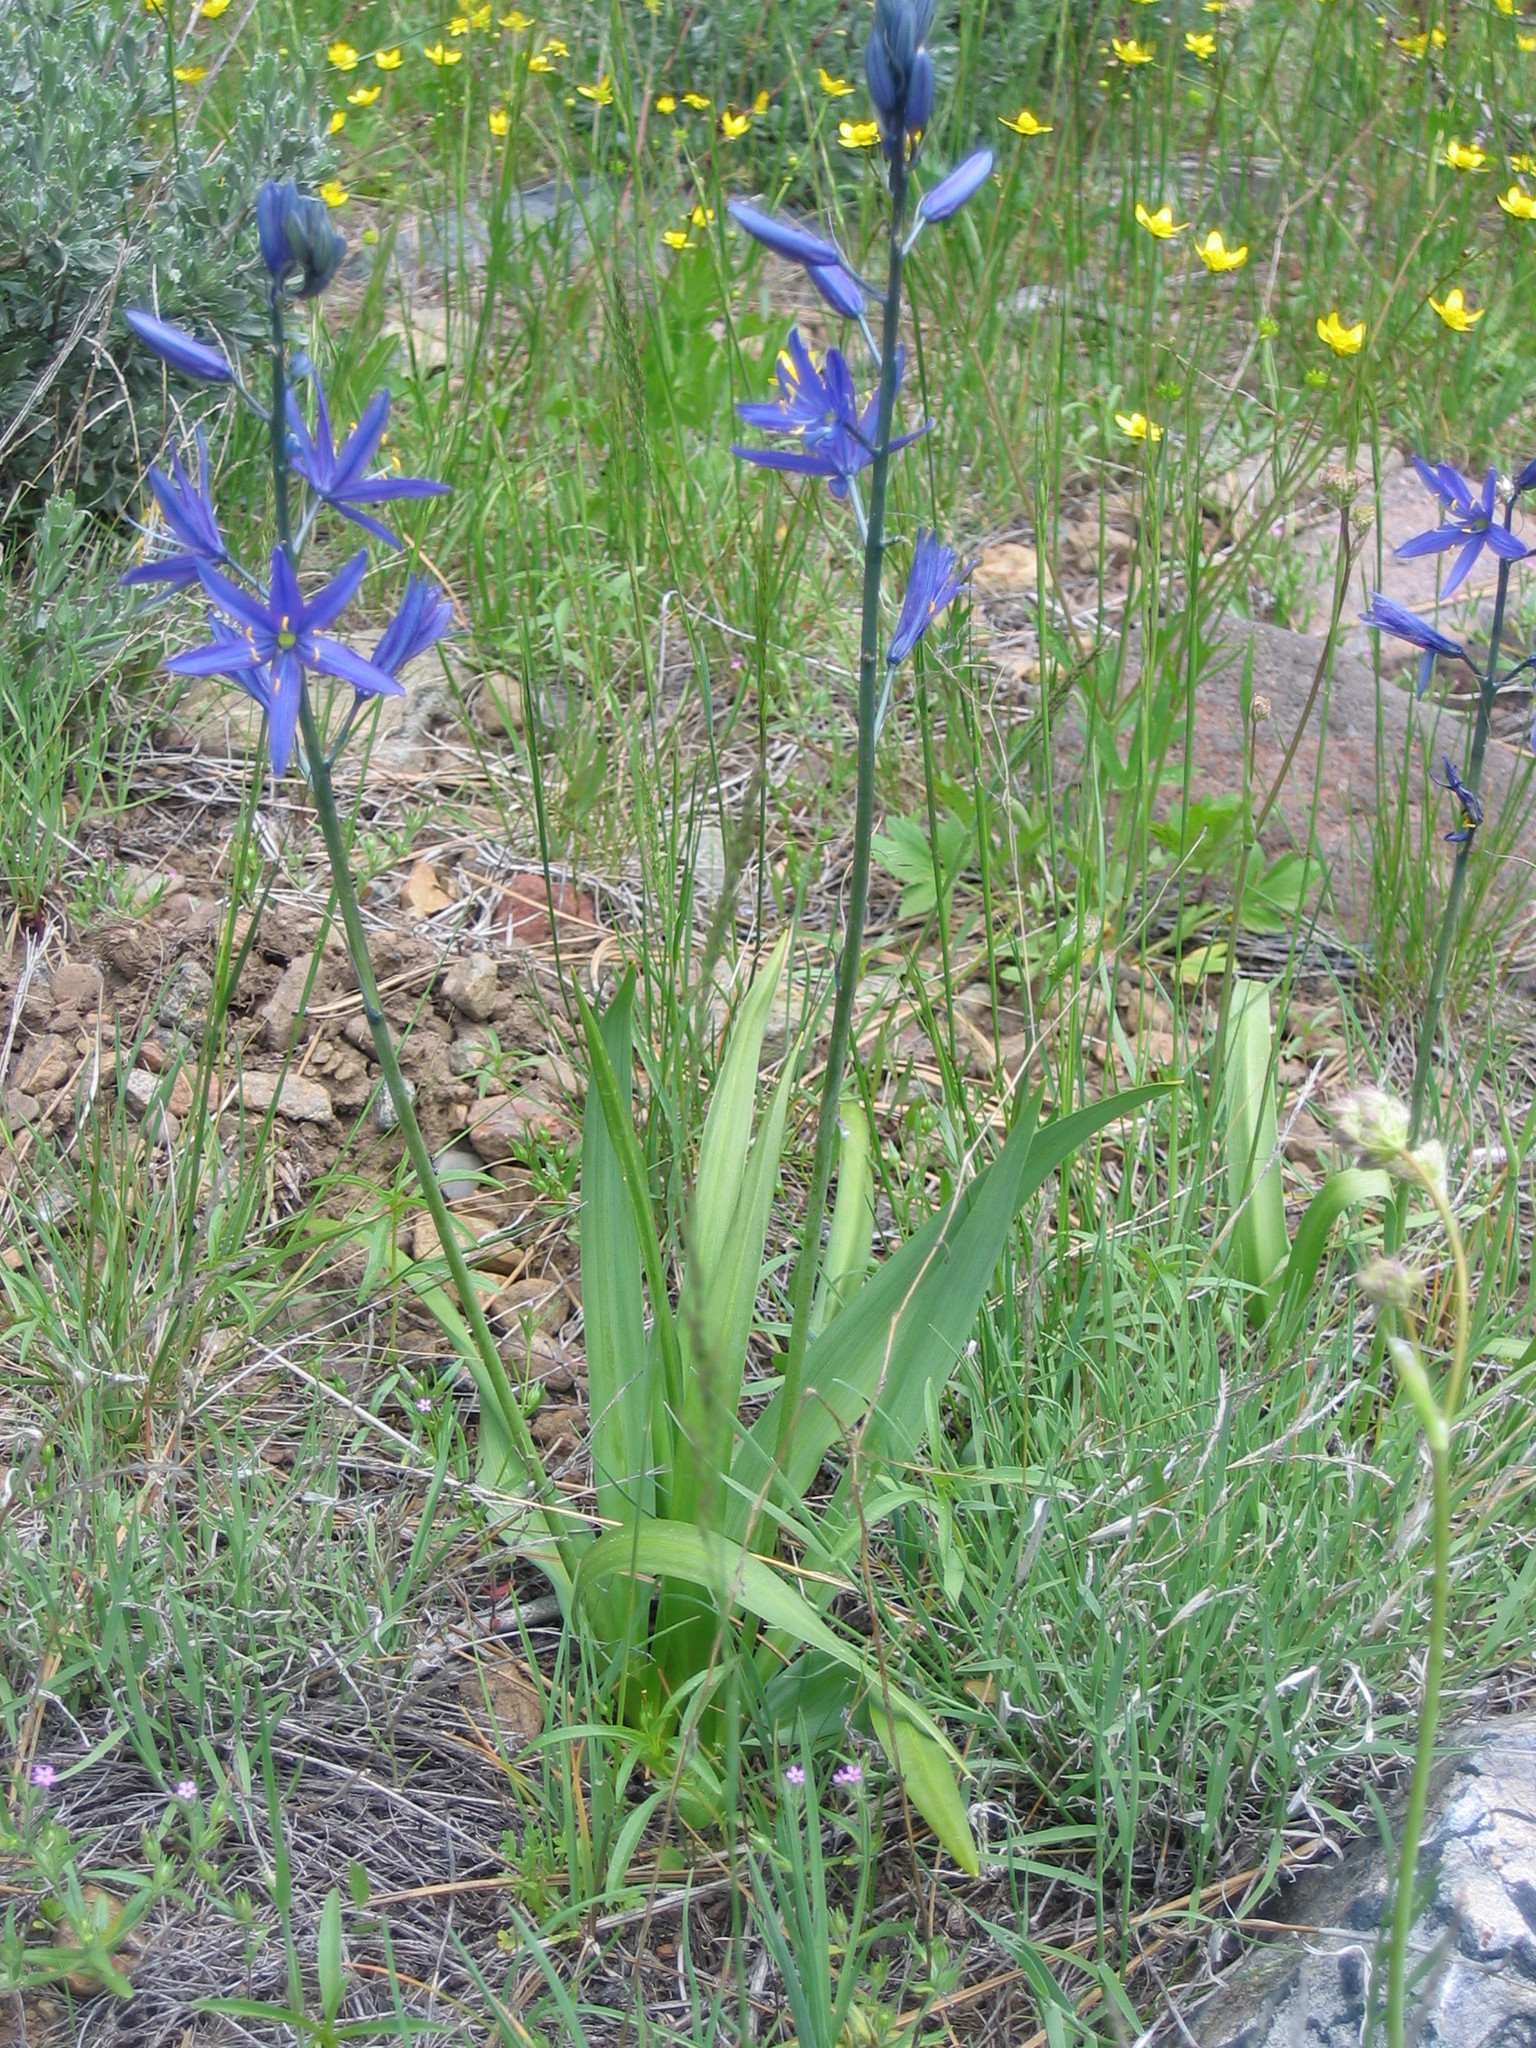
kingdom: Plantae
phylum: Tracheophyta
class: Liliopsida
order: Asparagales
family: Asparagaceae
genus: Camassia
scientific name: Camassia quamash
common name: Common camas
